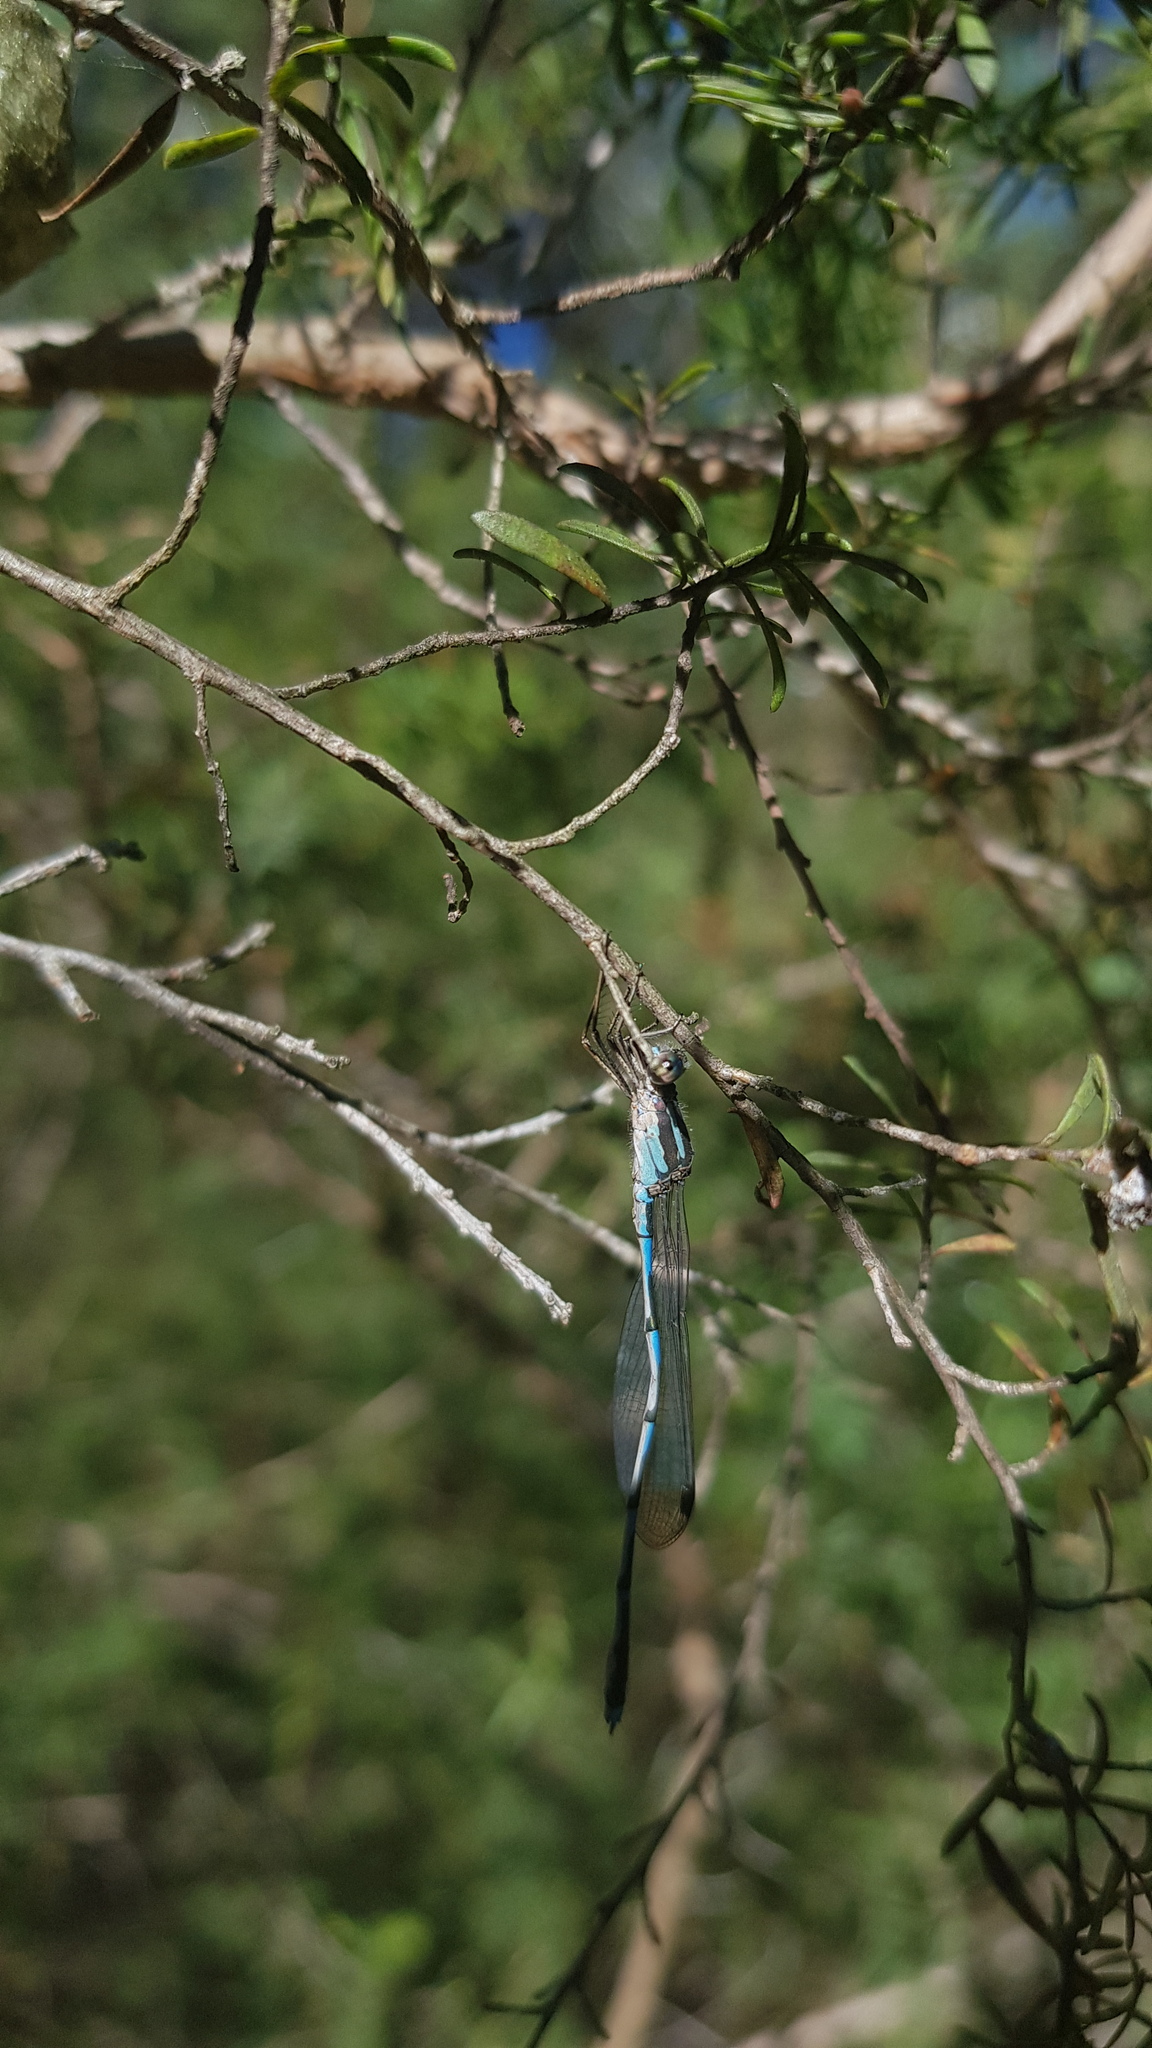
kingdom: Animalia
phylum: Arthropoda
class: Insecta
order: Odonata
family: Lestidae
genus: Austrolestes
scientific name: Austrolestes leda
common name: Wandering ringtail
